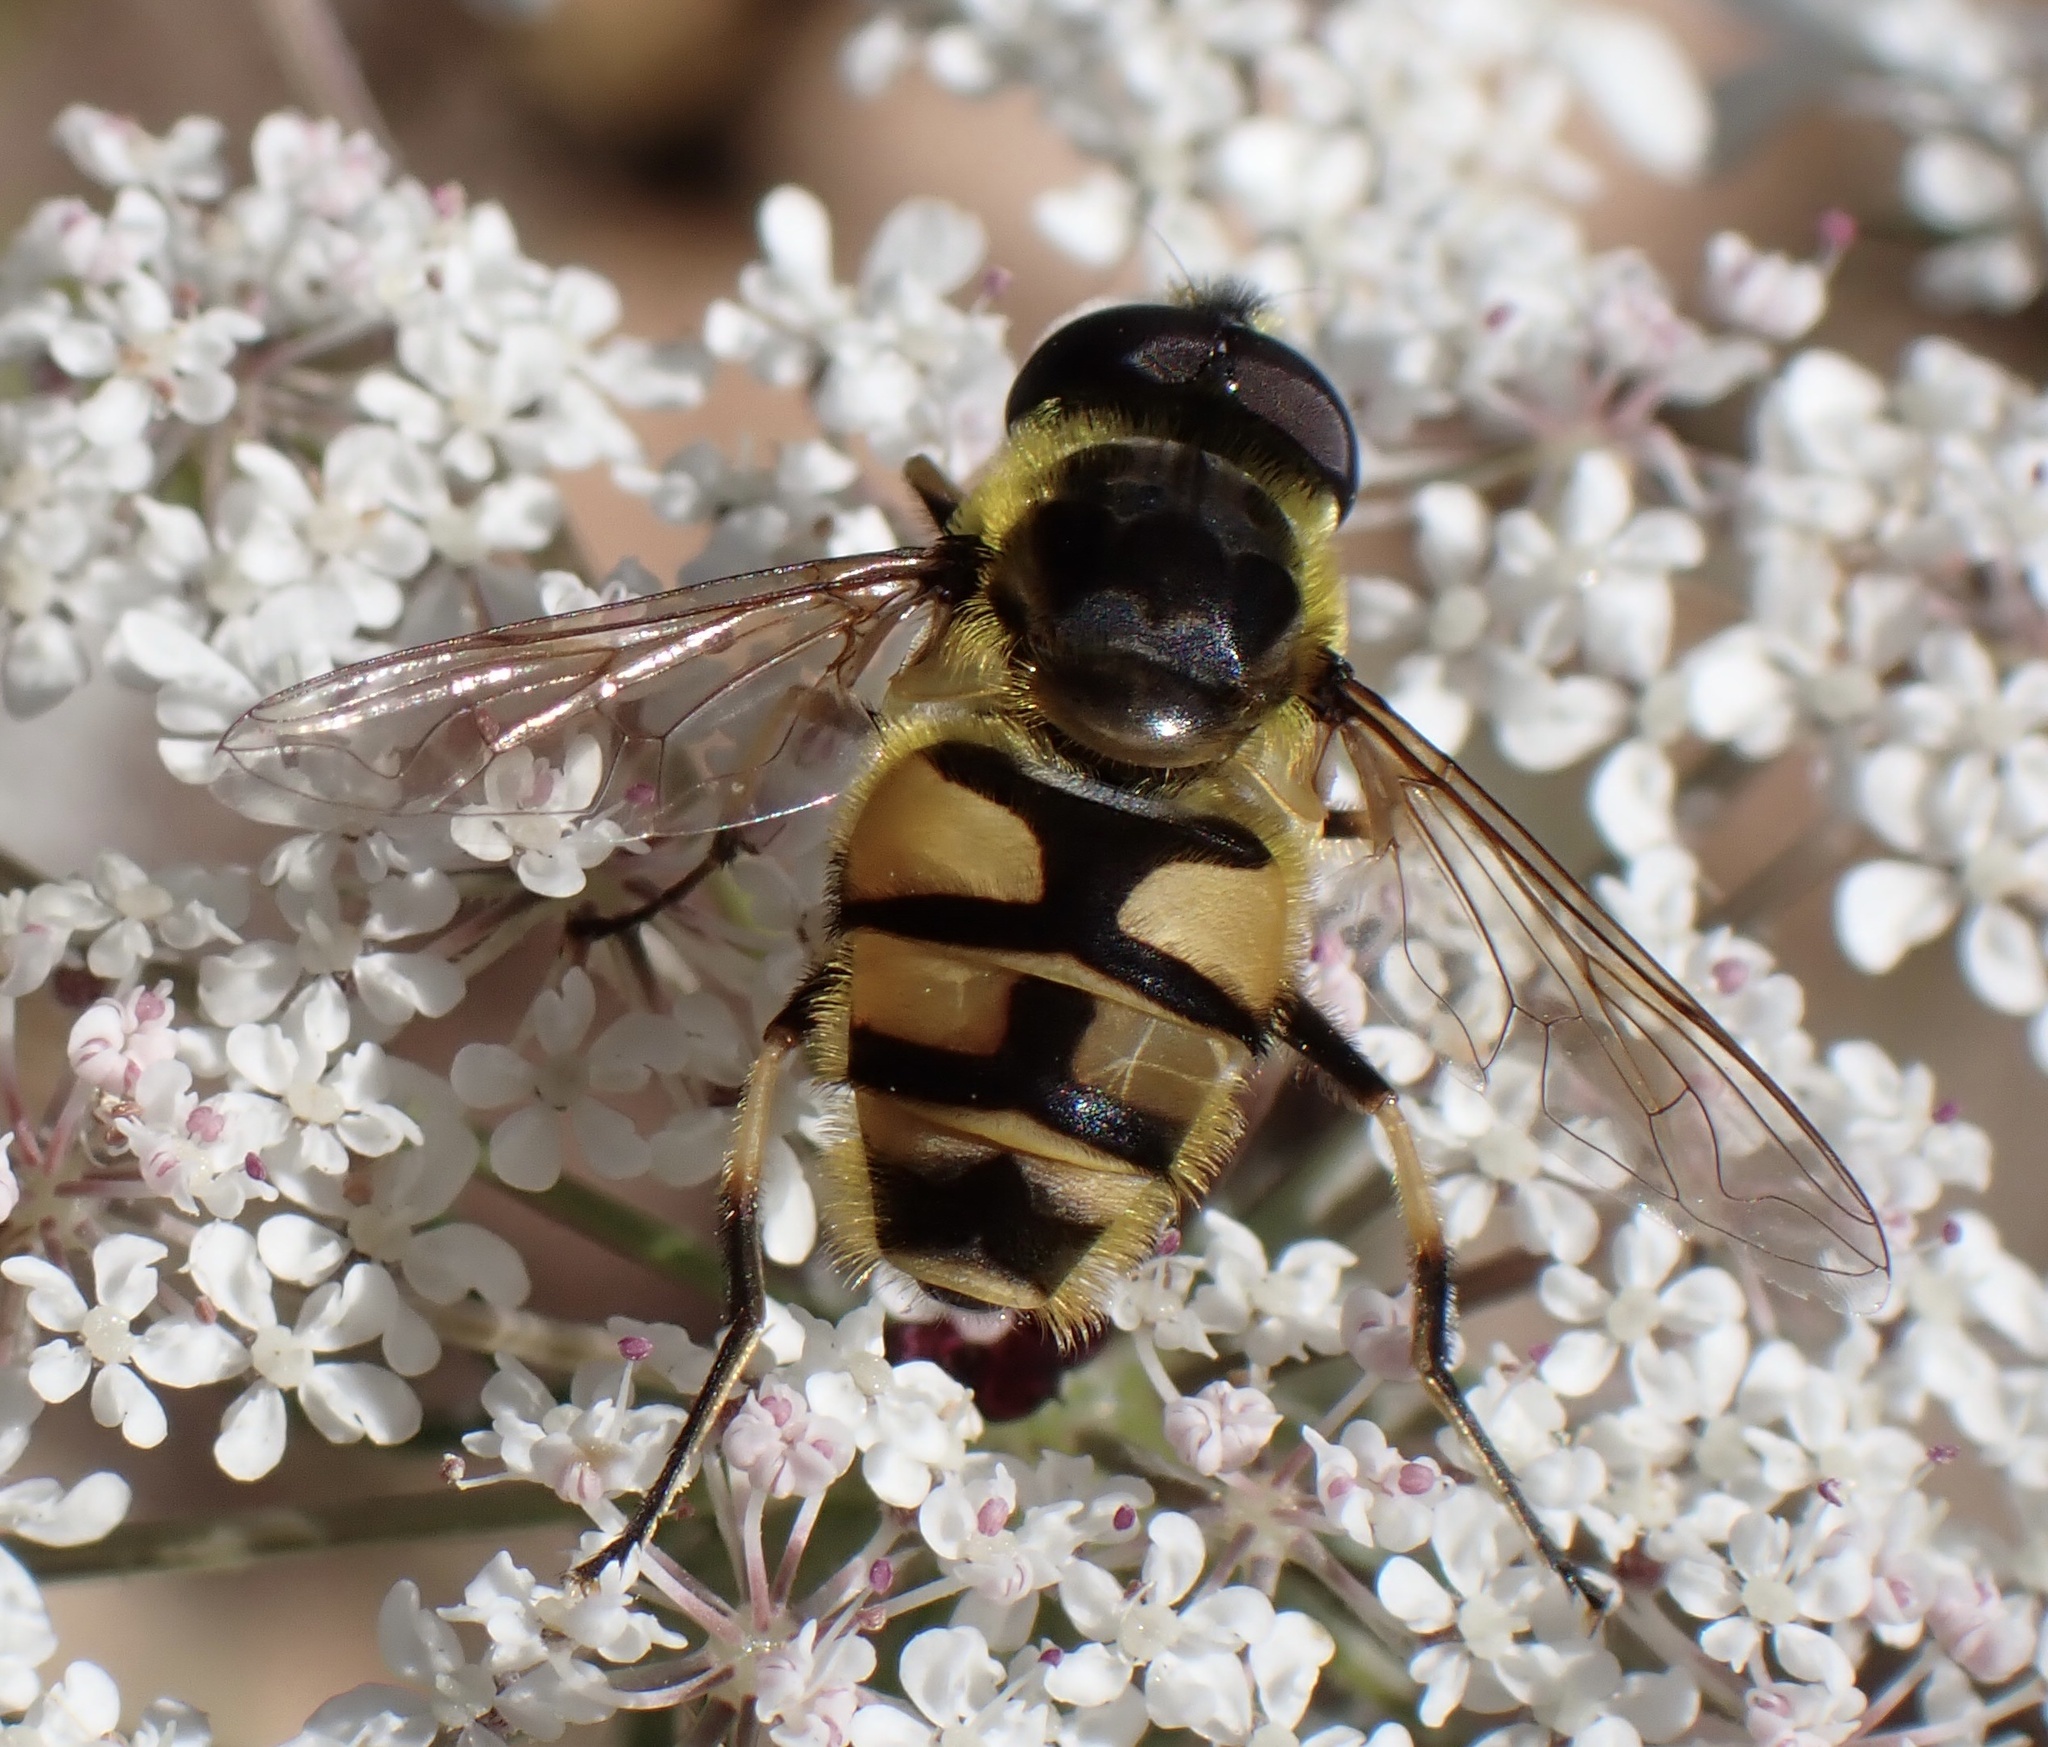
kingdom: Animalia
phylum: Arthropoda
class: Insecta
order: Diptera
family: Syrphidae
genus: Myathropa
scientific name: Myathropa florea
